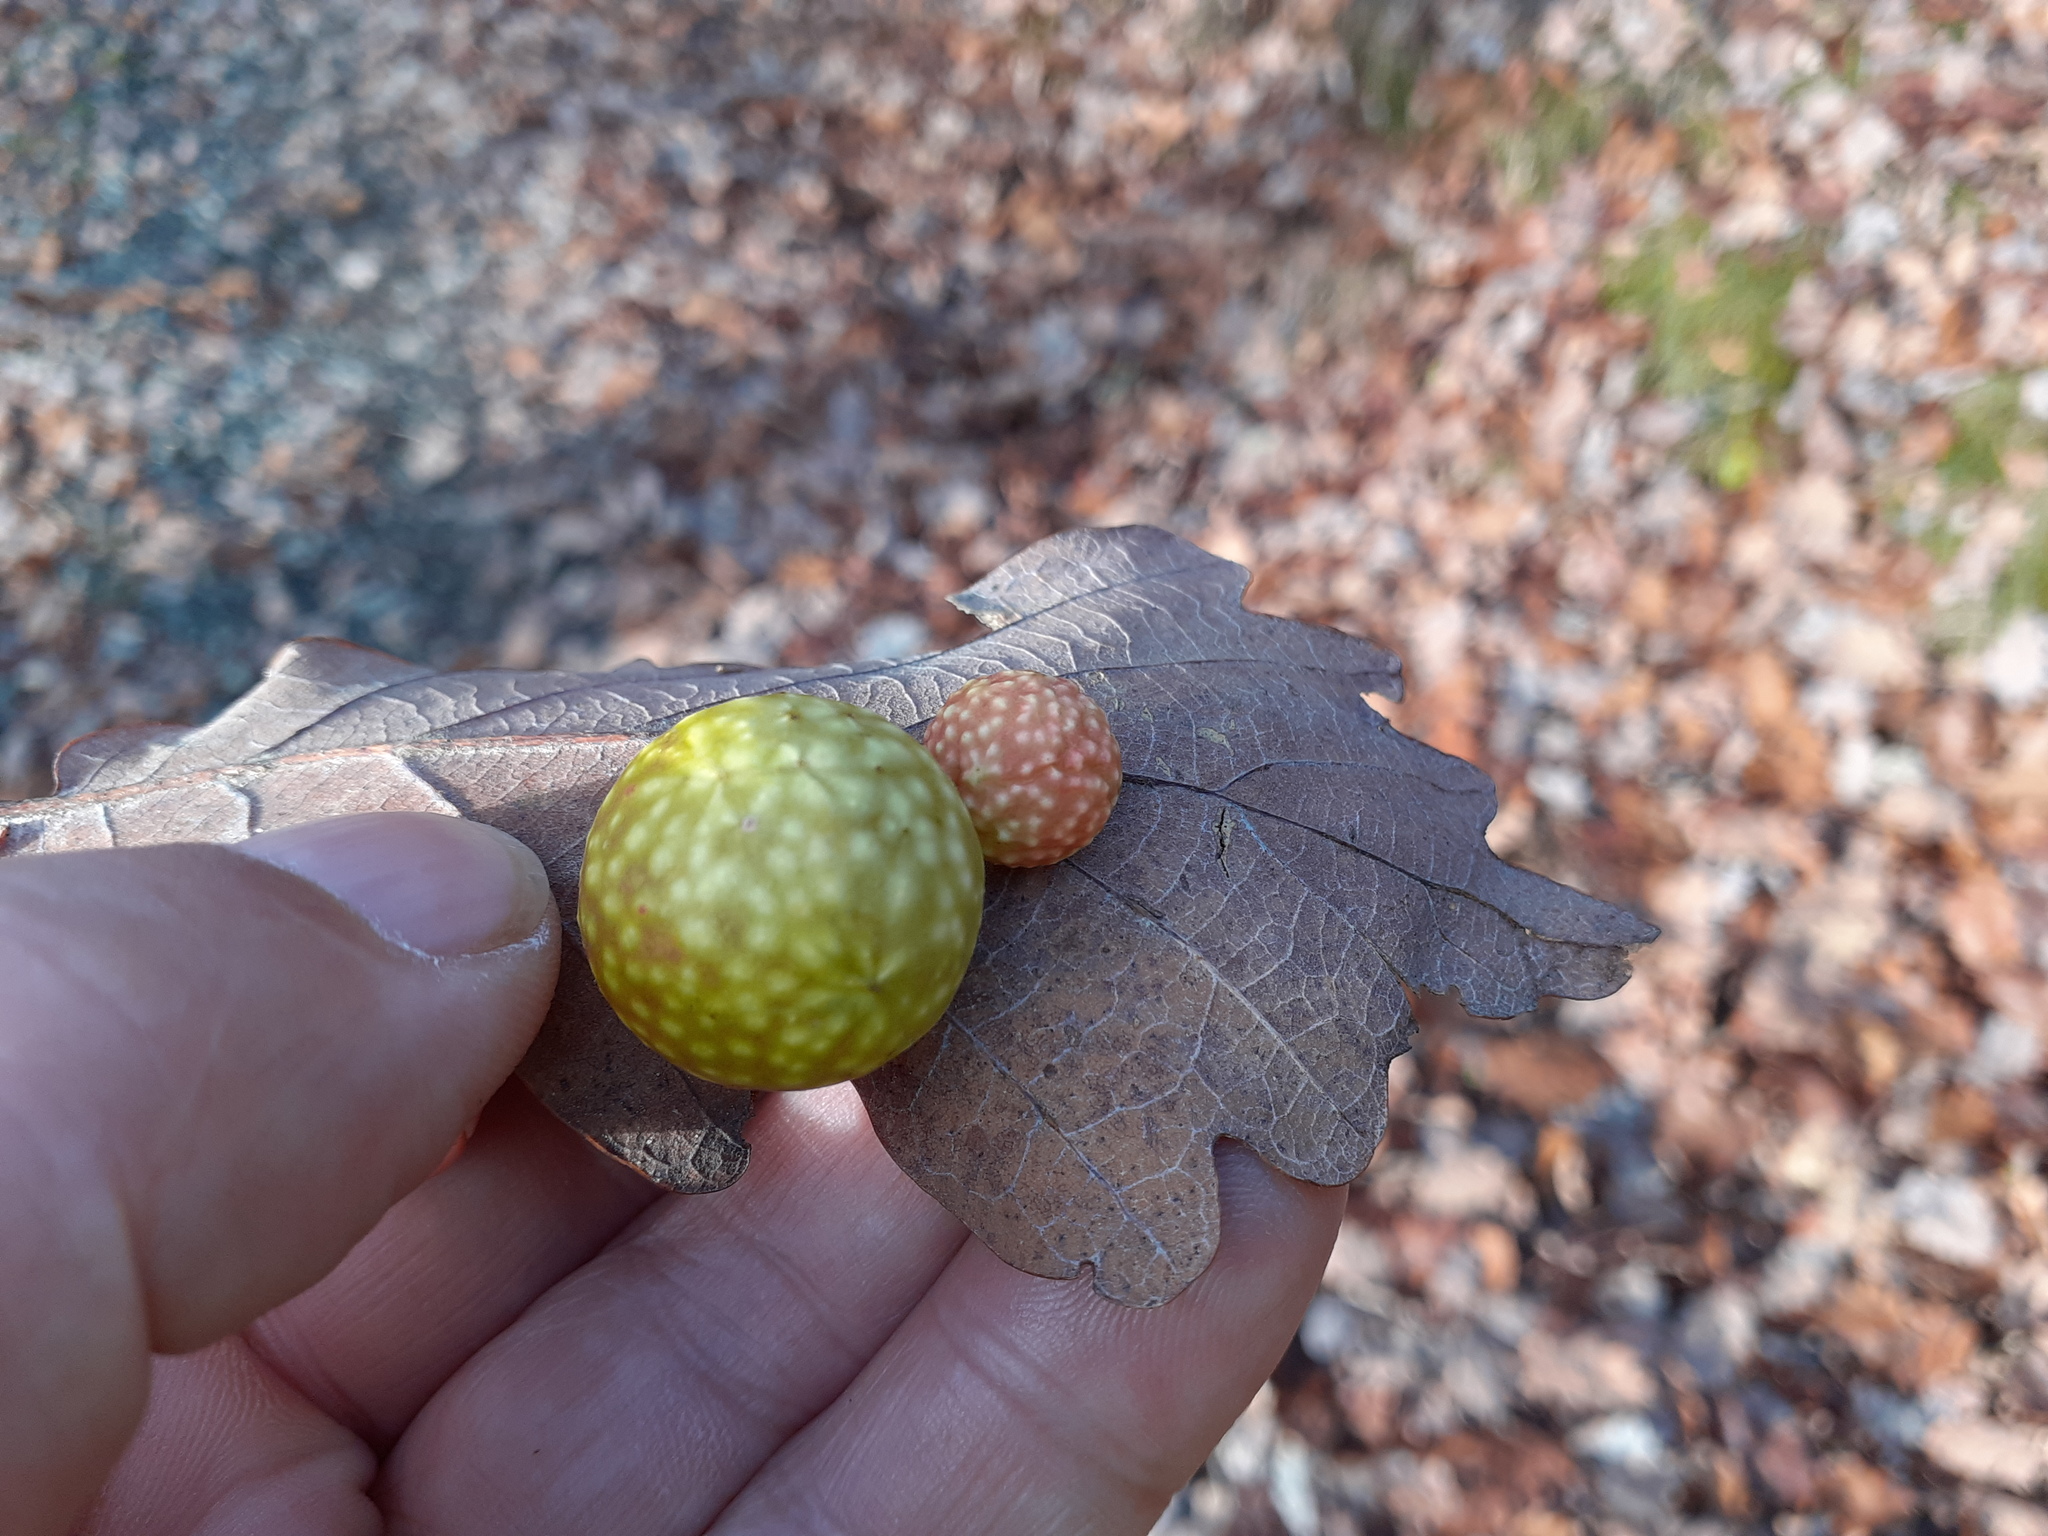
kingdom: Animalia
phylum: Arthropoda
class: Insecta
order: Hymenoptera
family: Cynipidae
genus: Cynips
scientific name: Cynips quercusfolii
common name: Cherry gall
